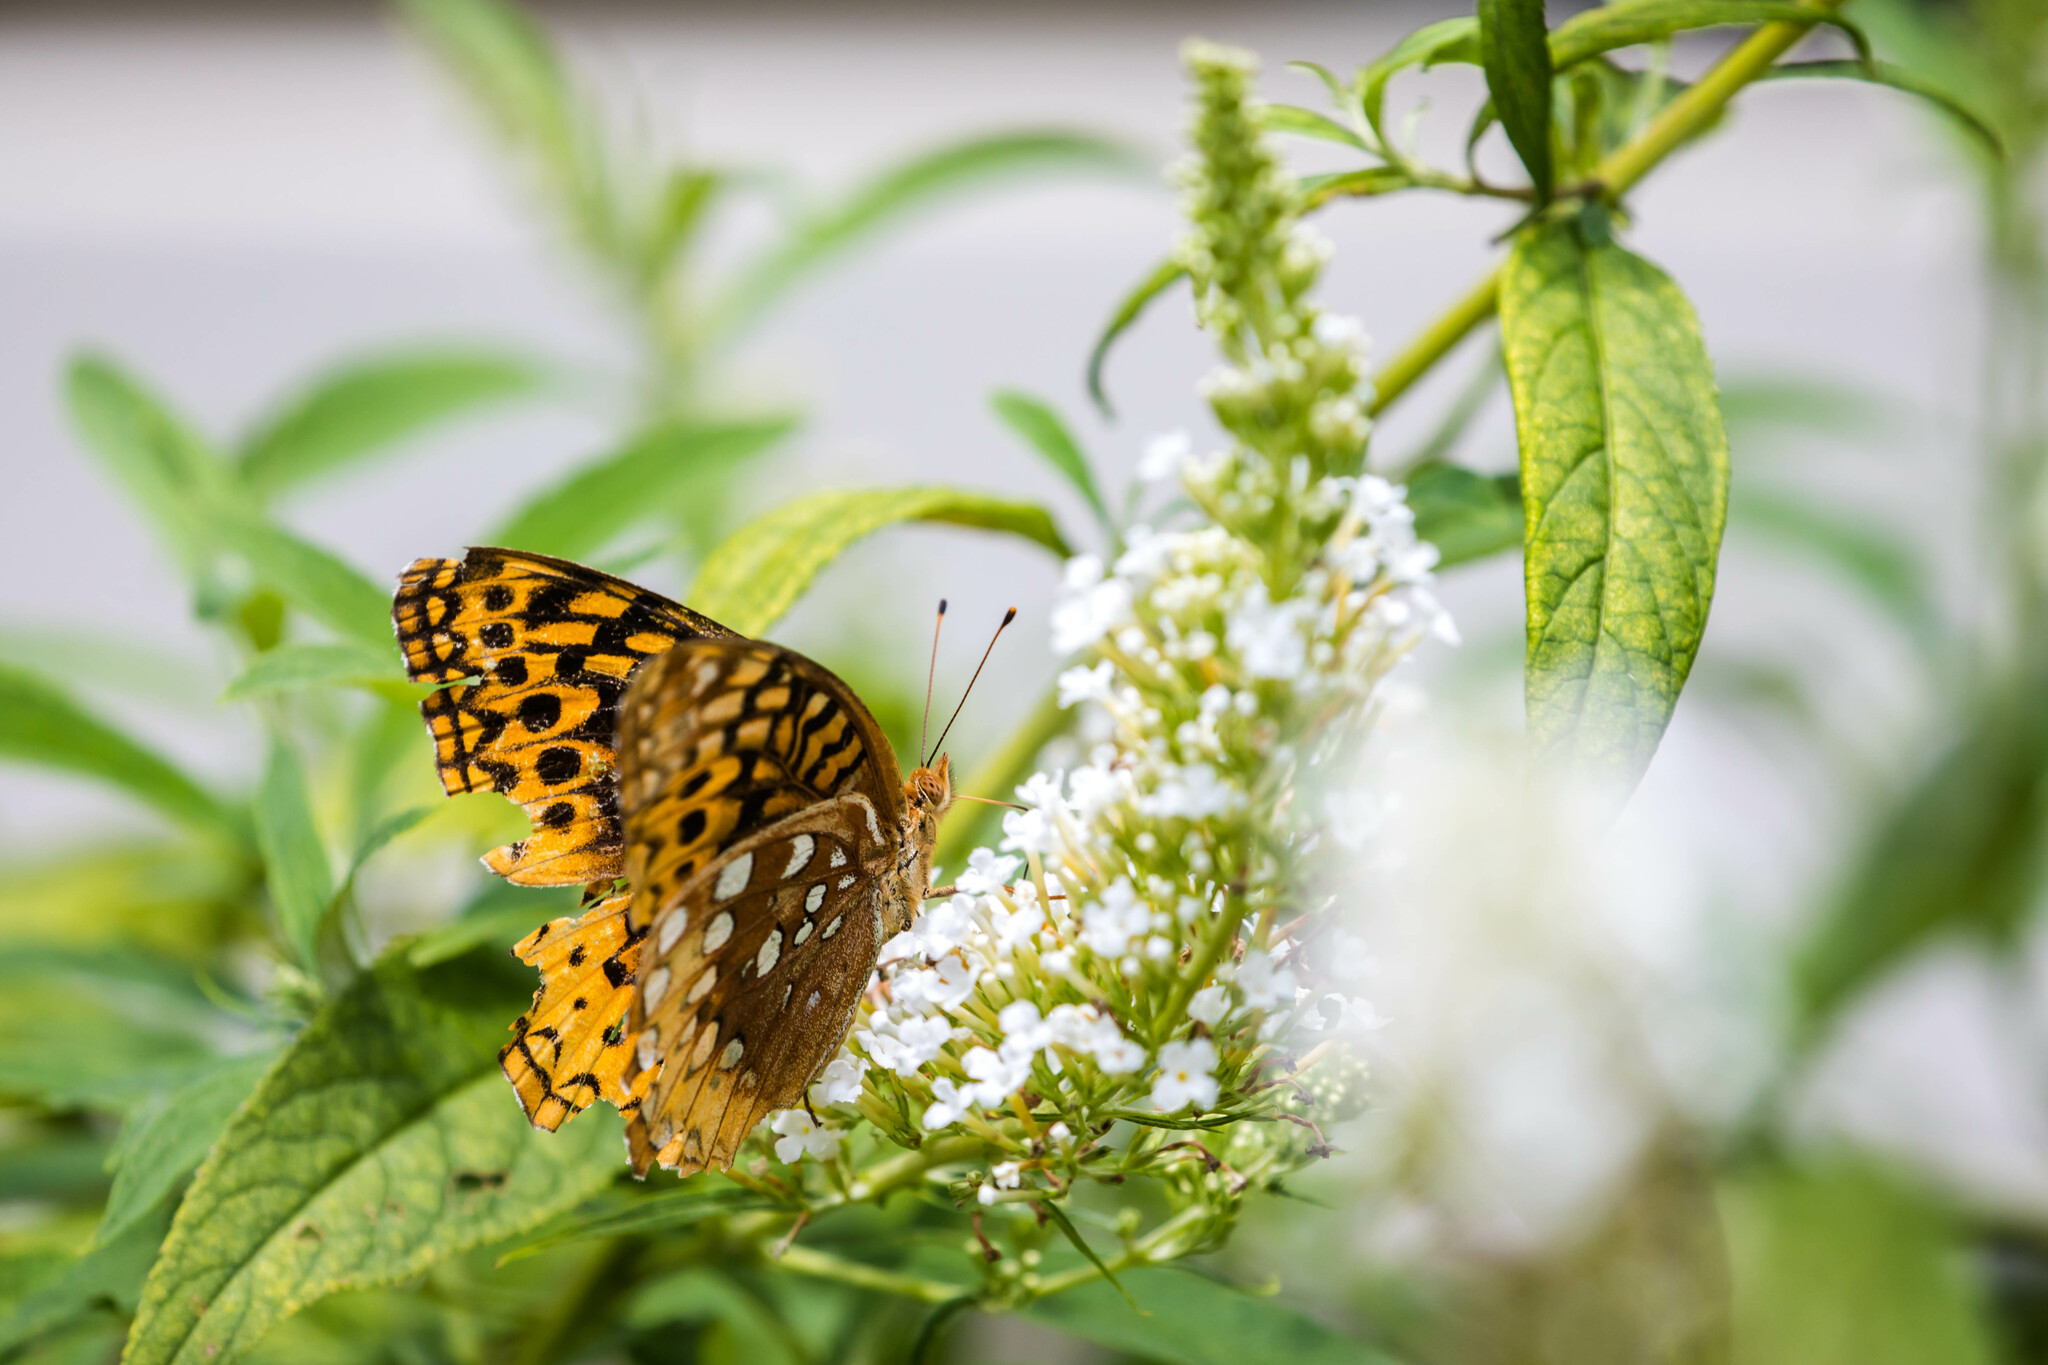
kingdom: Animalia
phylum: Arthropoda
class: Insecta
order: Lepidoptera
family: Nymphalidae
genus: Speyeria
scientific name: Speyeria cybele
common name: Great spangled fritillary
